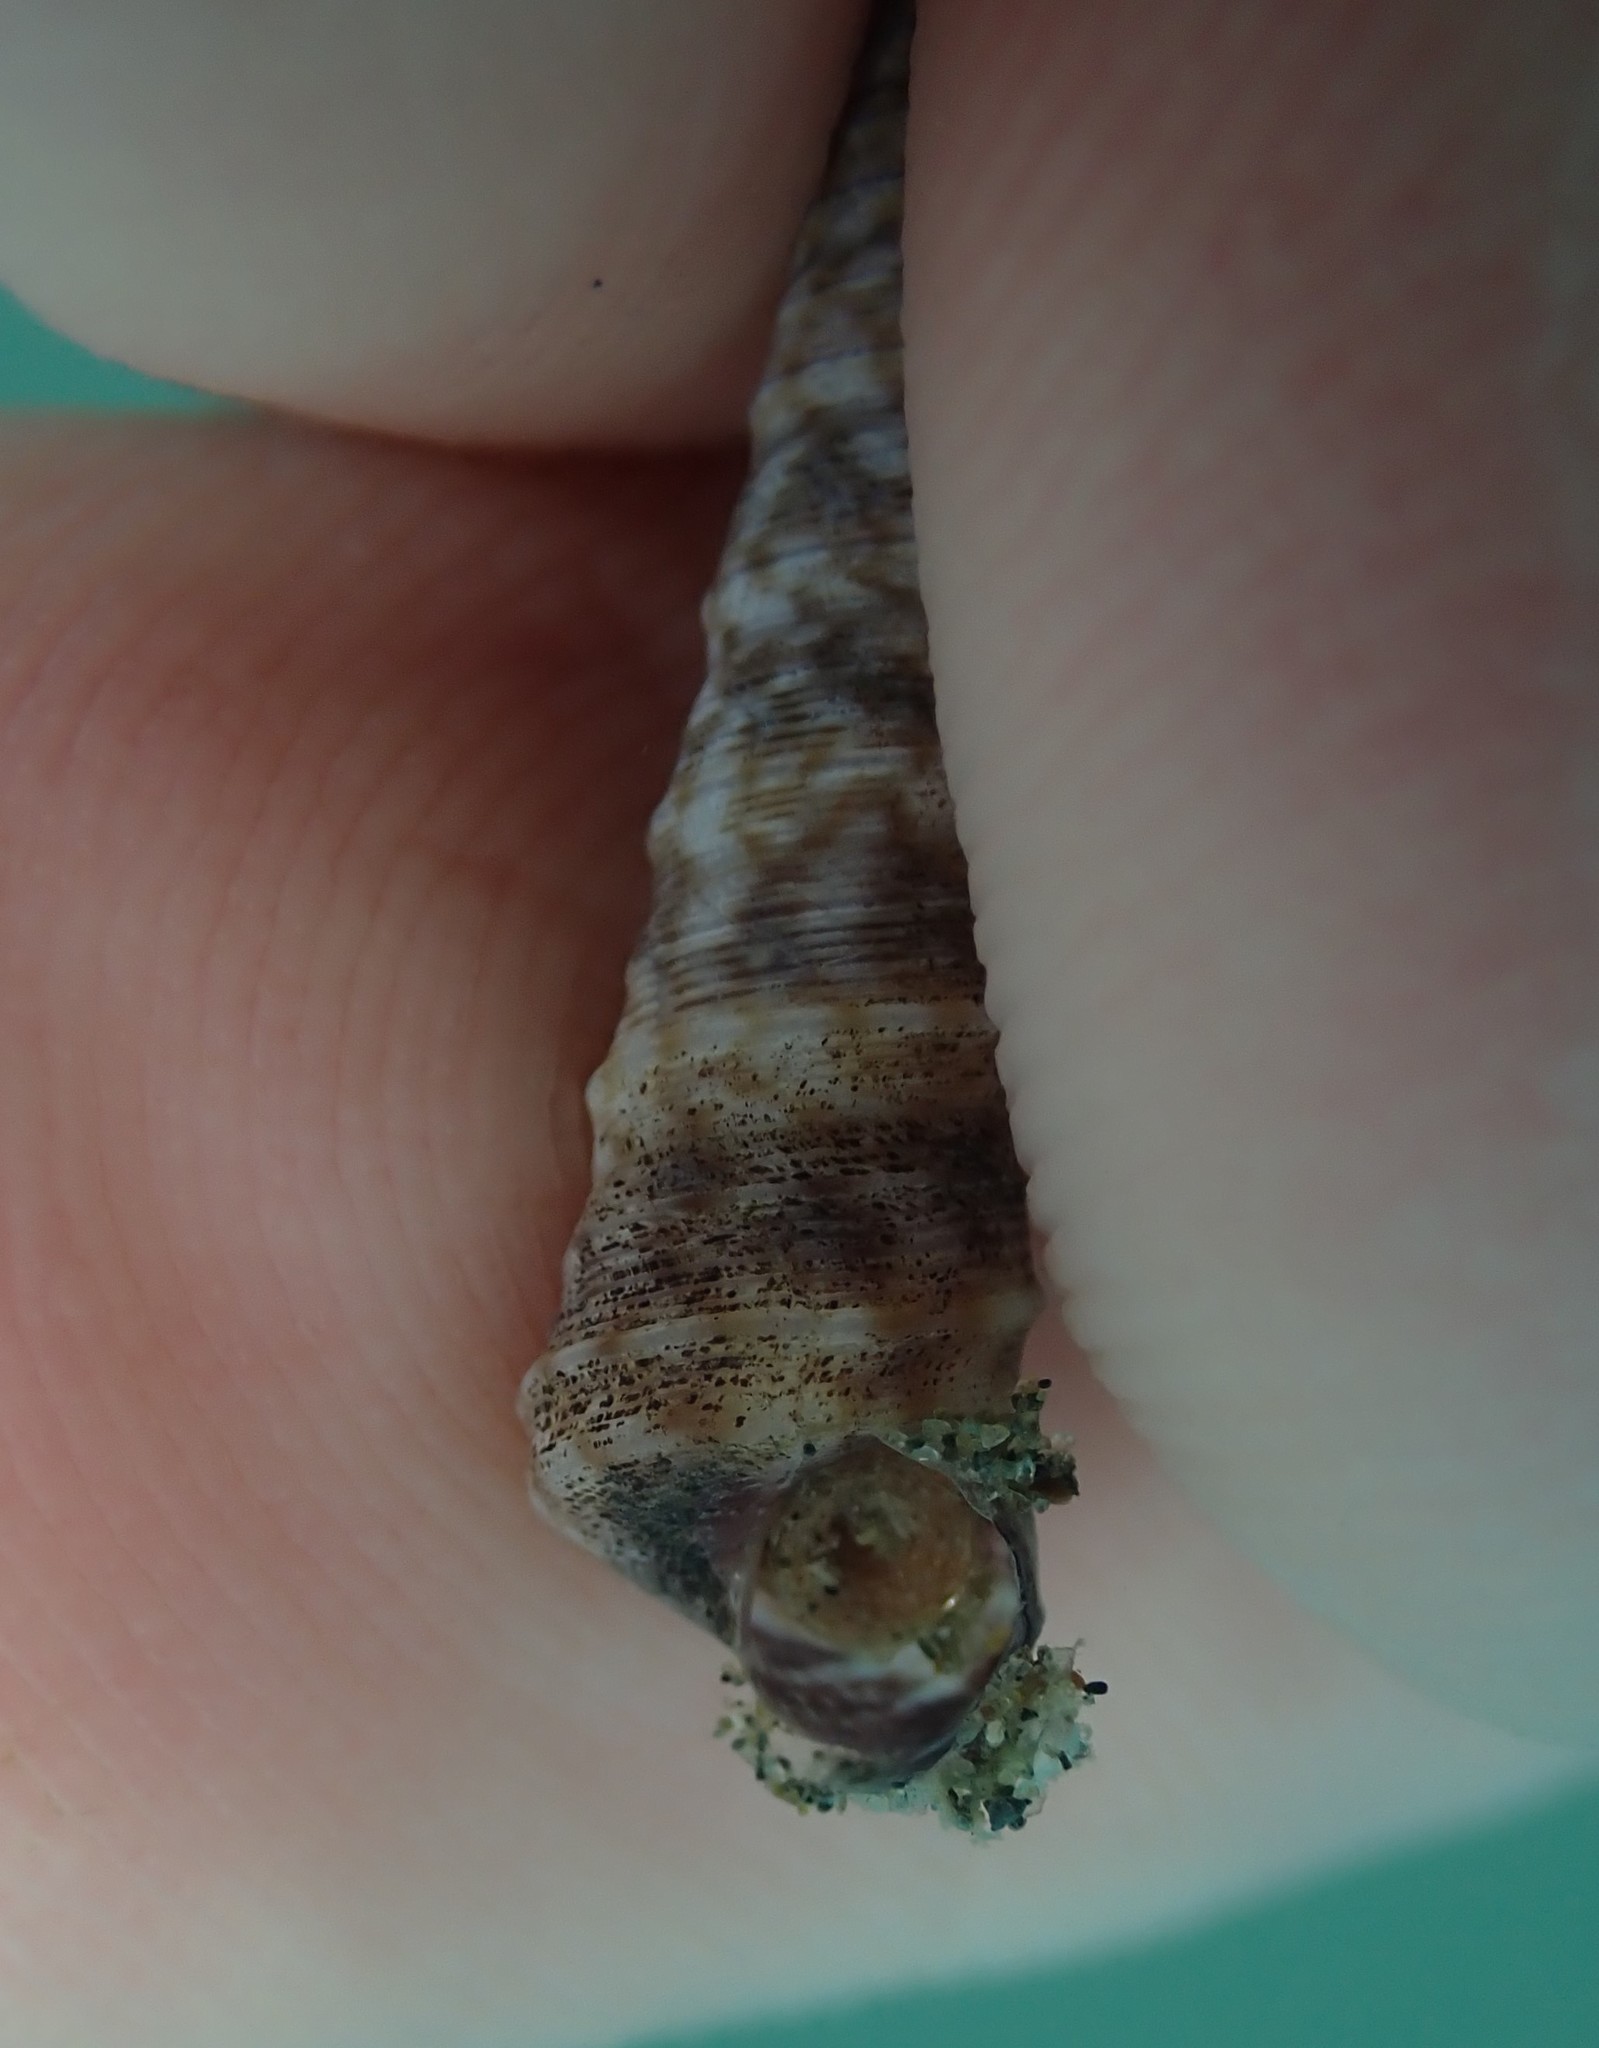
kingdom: Animalia
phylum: Mollusca
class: Gastropoda
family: Turritellidae
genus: Stiracolpus
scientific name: Stiracolpus pagoda
